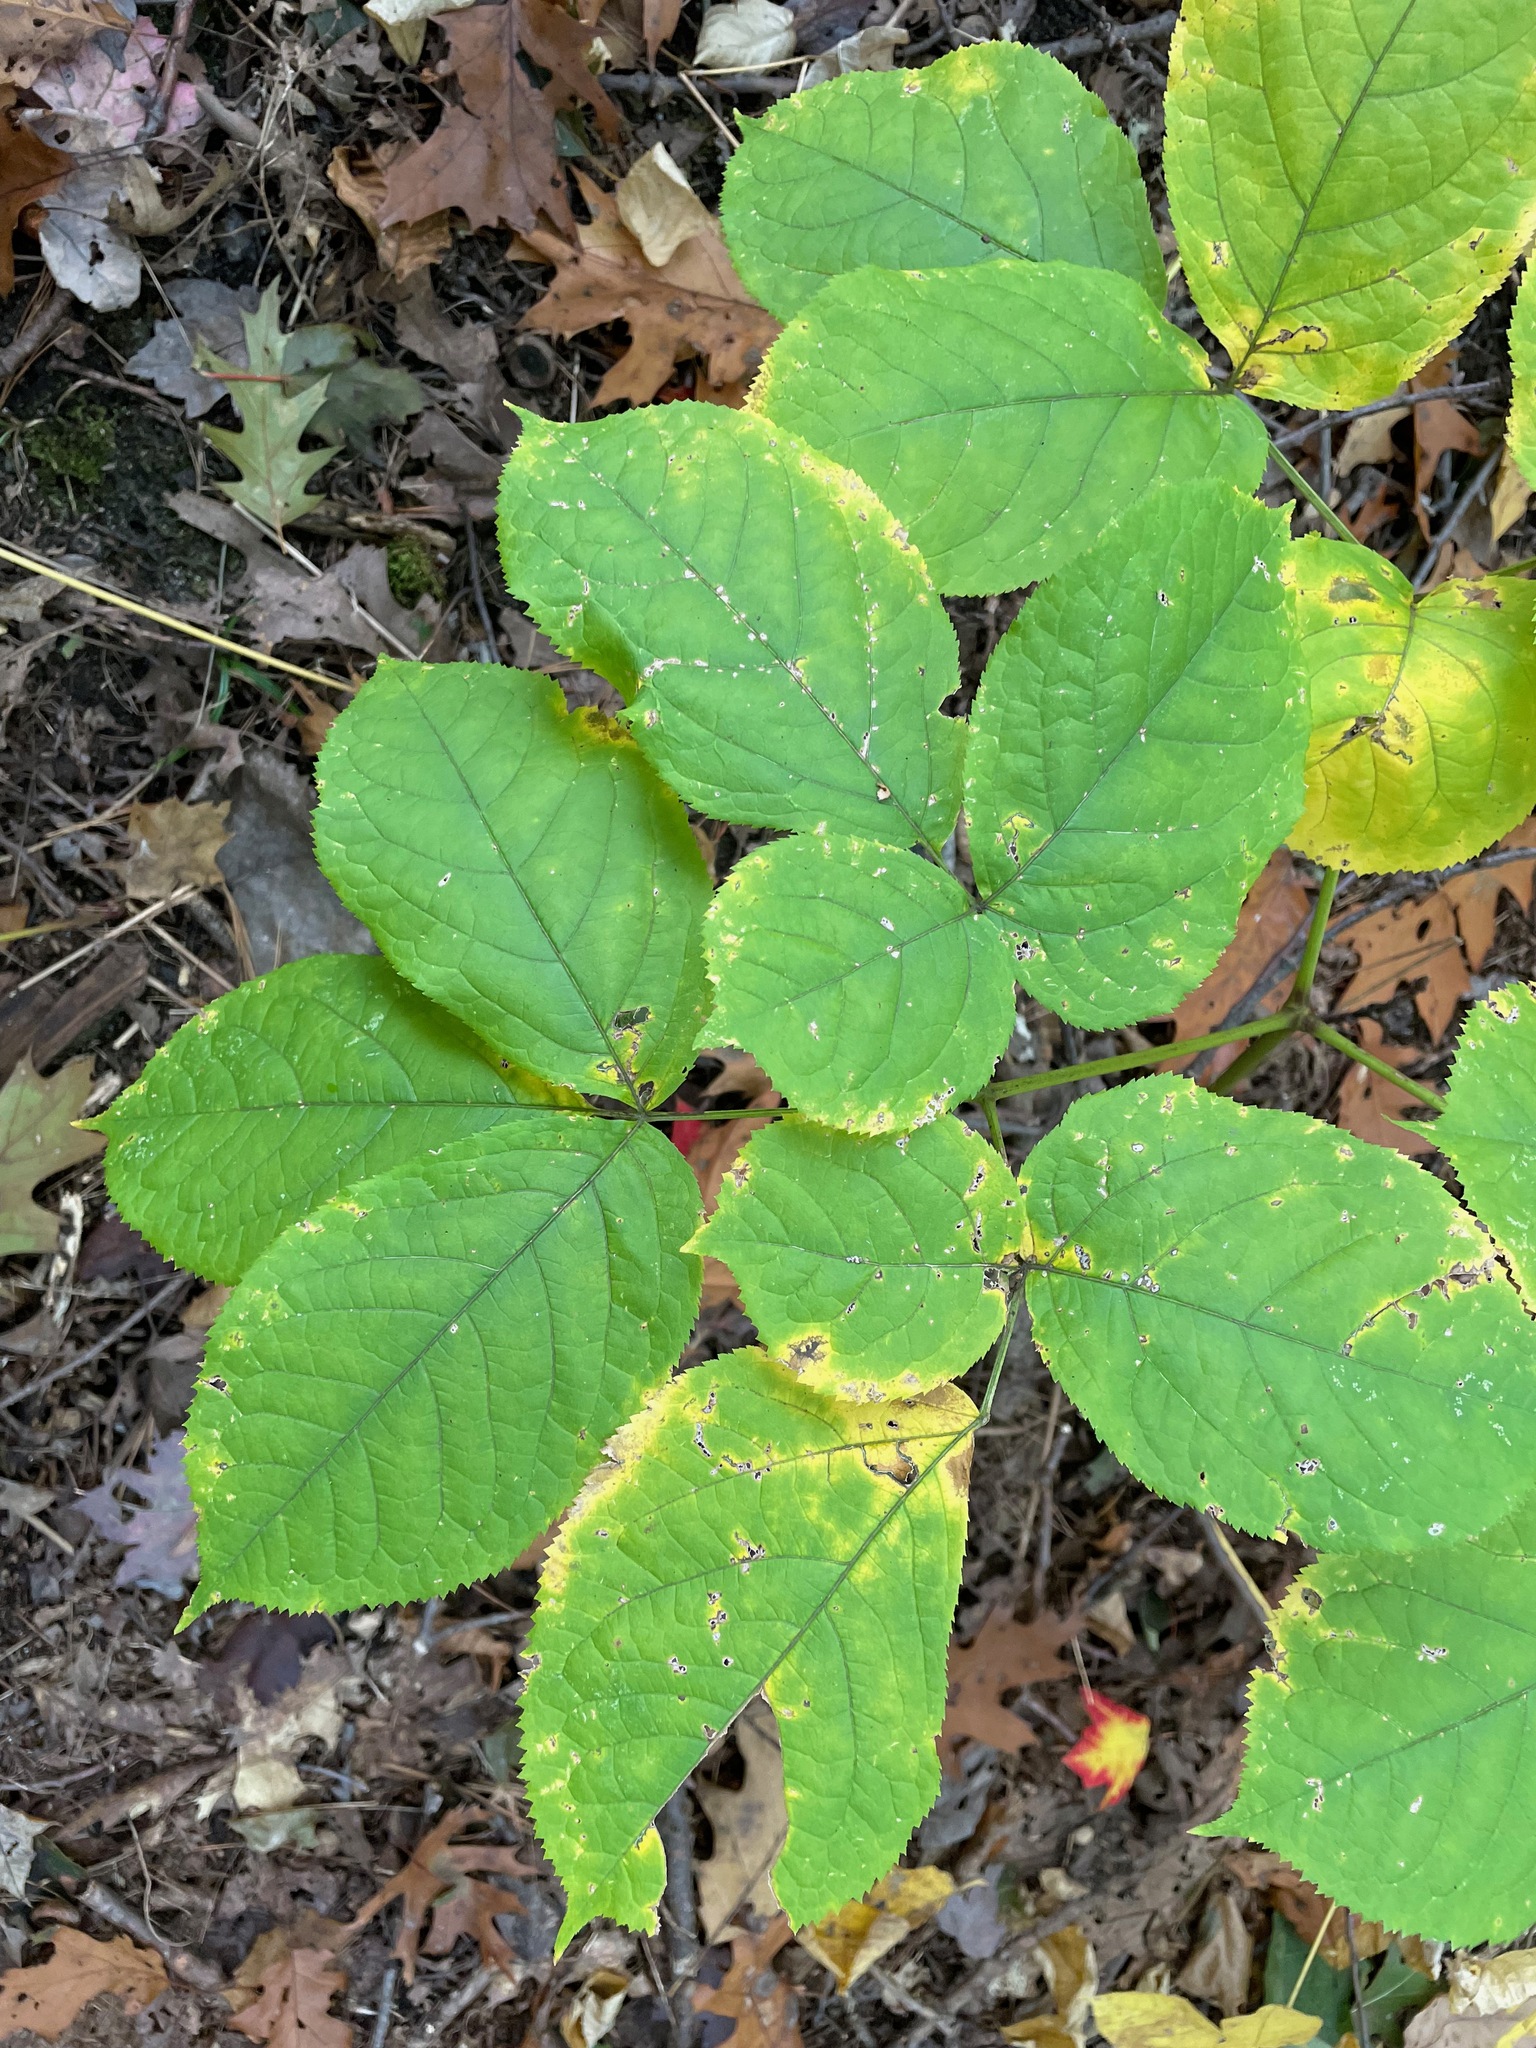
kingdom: Plantae
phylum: Tracheophyta
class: Magnoliopsida
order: Apiales
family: Araliaceae
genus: Aralia
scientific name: Aralia nudicaulis
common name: Wild sarsaparilla
